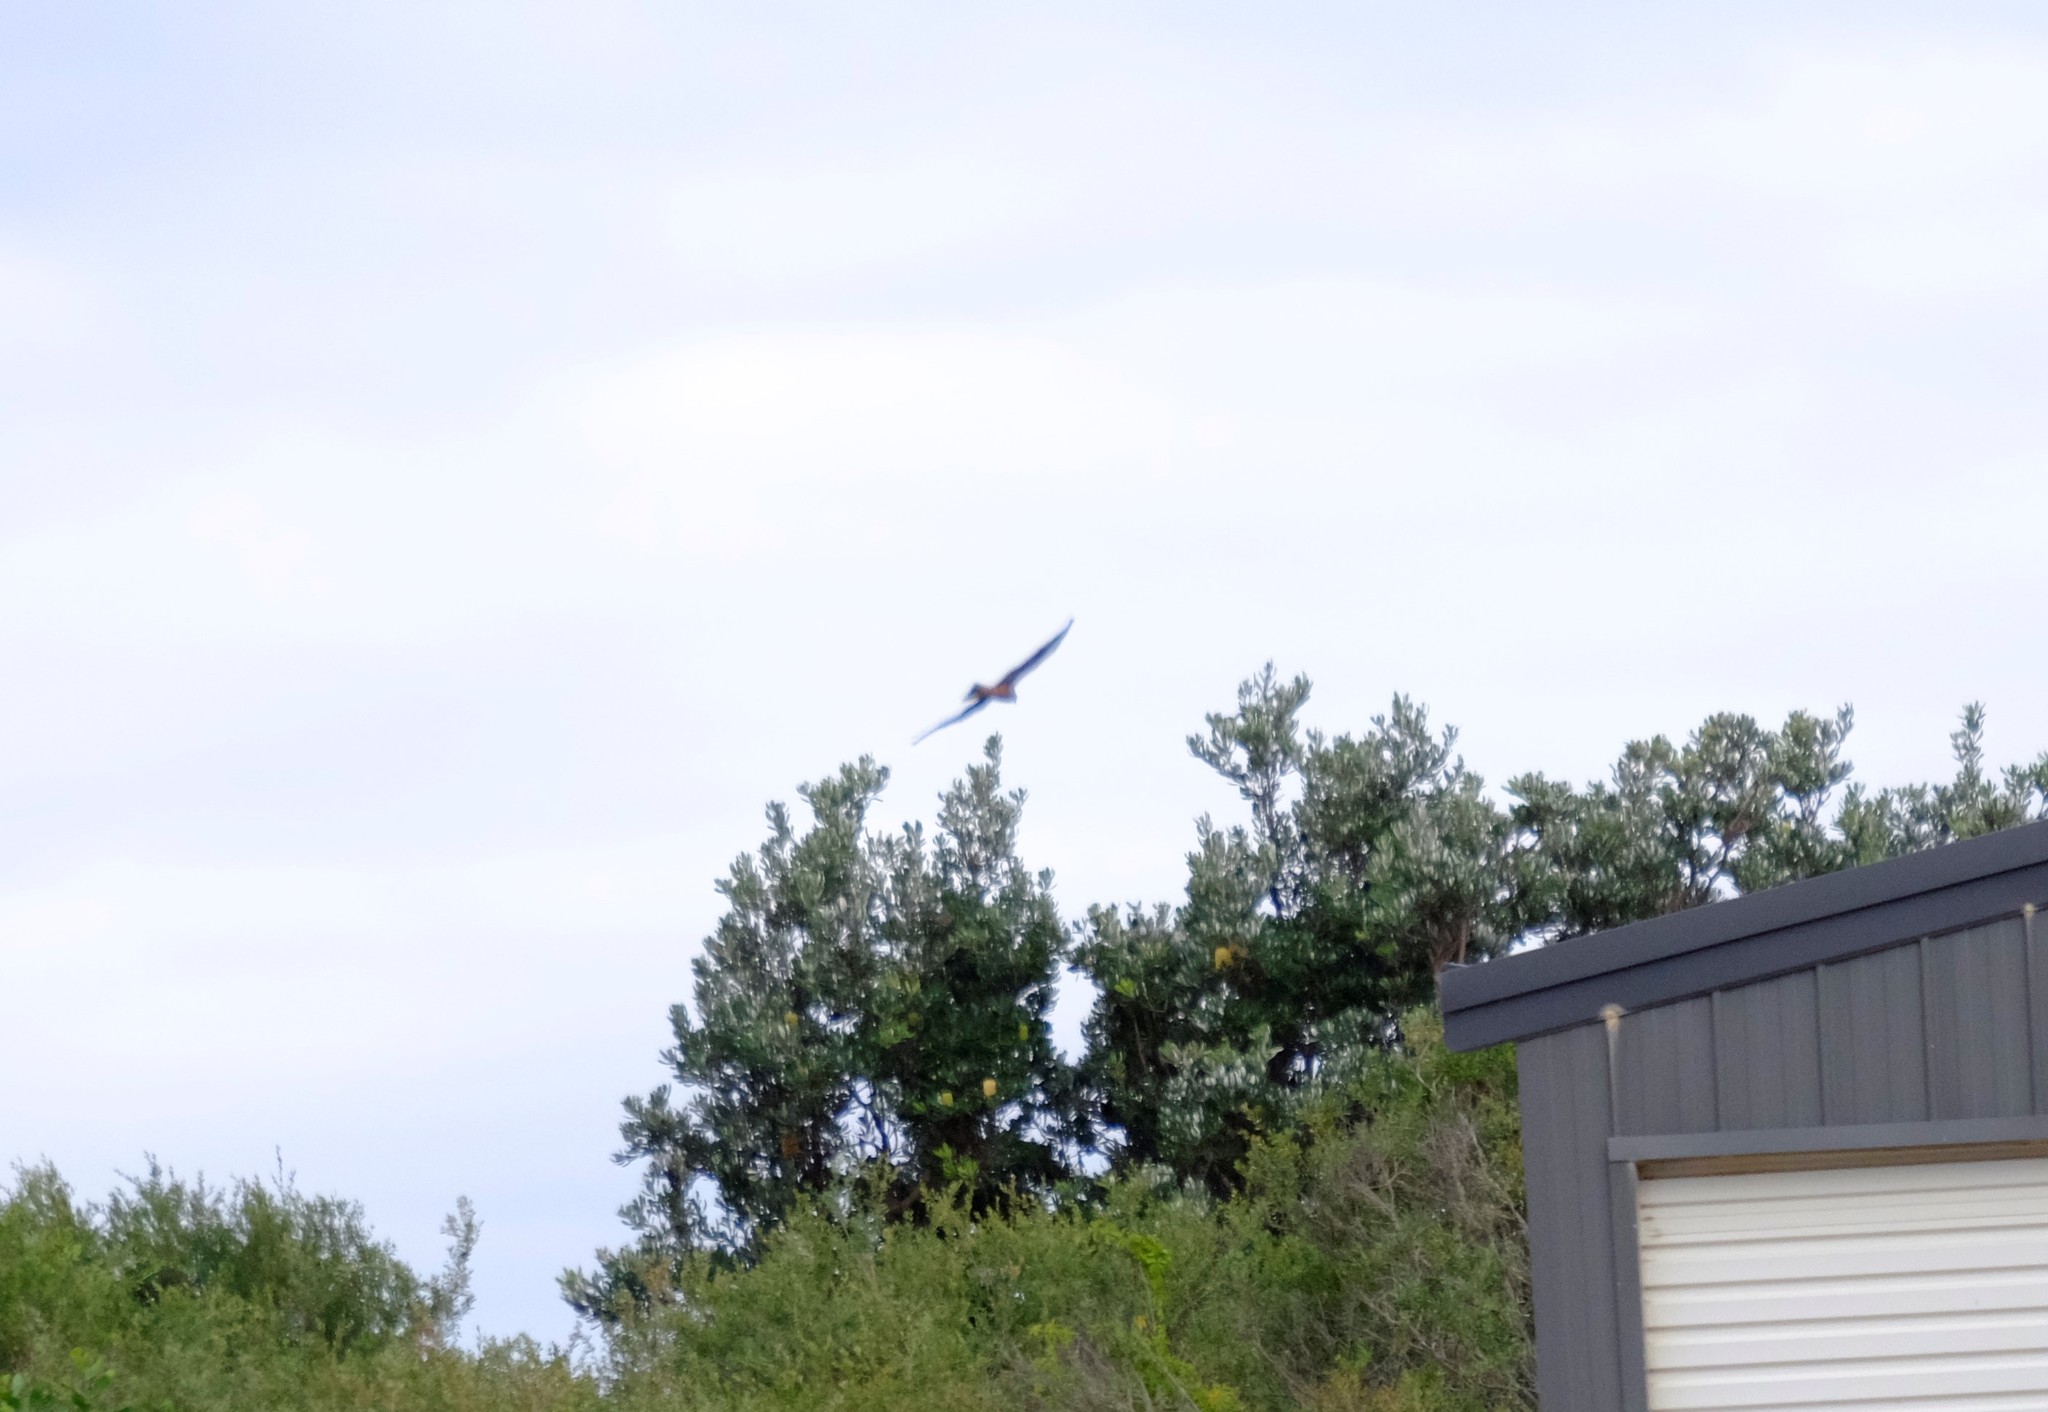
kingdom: Animalia
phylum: Chordata
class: Aves
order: Accipitriformes
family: Accipitridae
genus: Lophoictinia
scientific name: Lophoictinia isura
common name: Square-tailed kite
